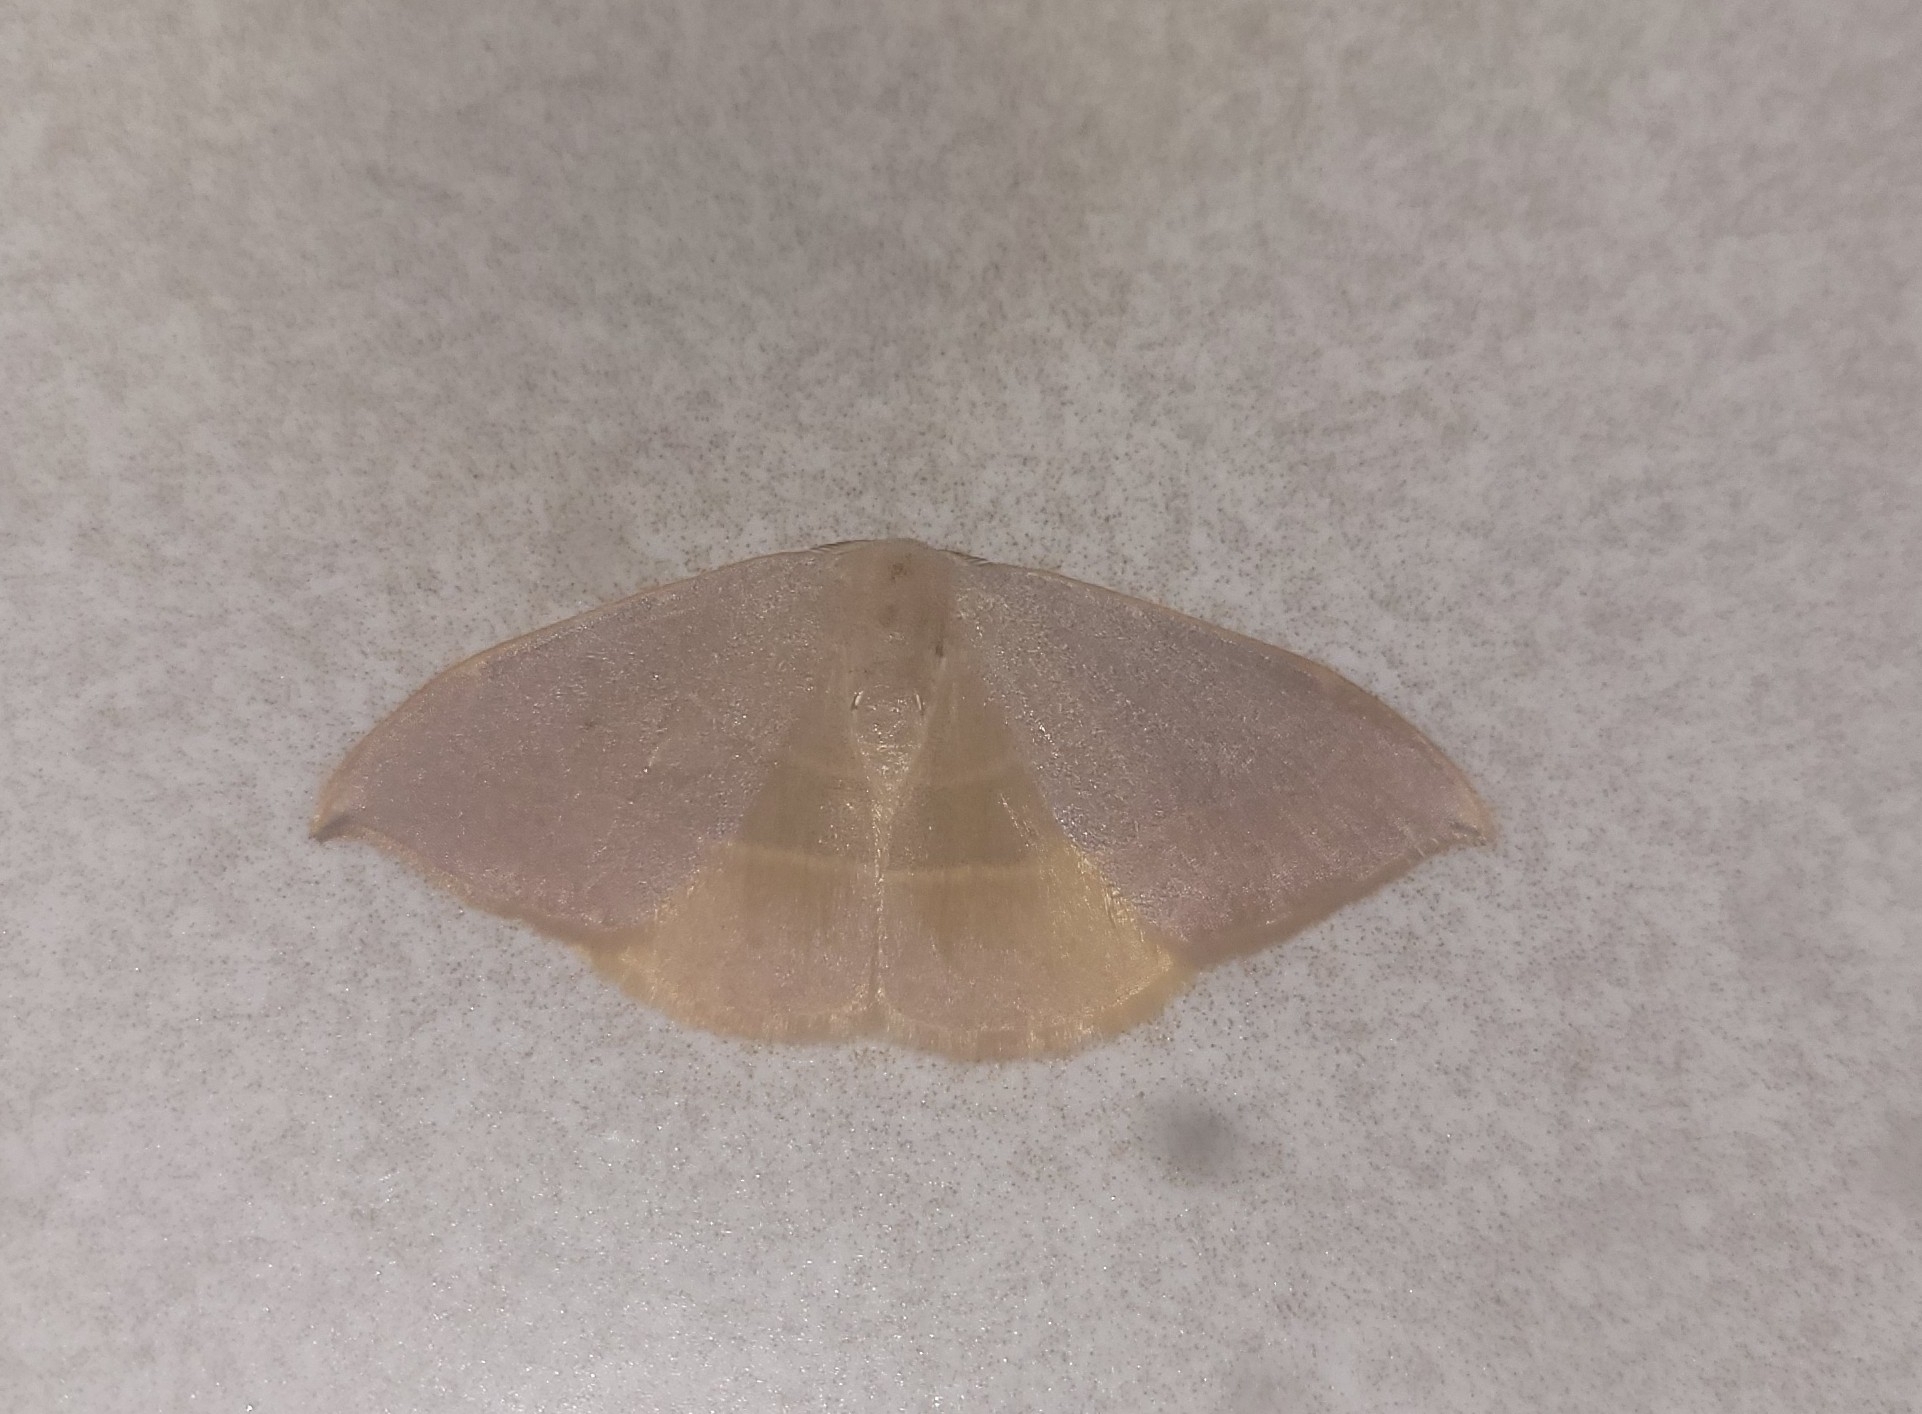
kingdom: Animalia
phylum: Arthropoda
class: Insecta
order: Lepidoptera
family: Drepanidae
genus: Watsonalla
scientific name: Watsonalla uncinula
